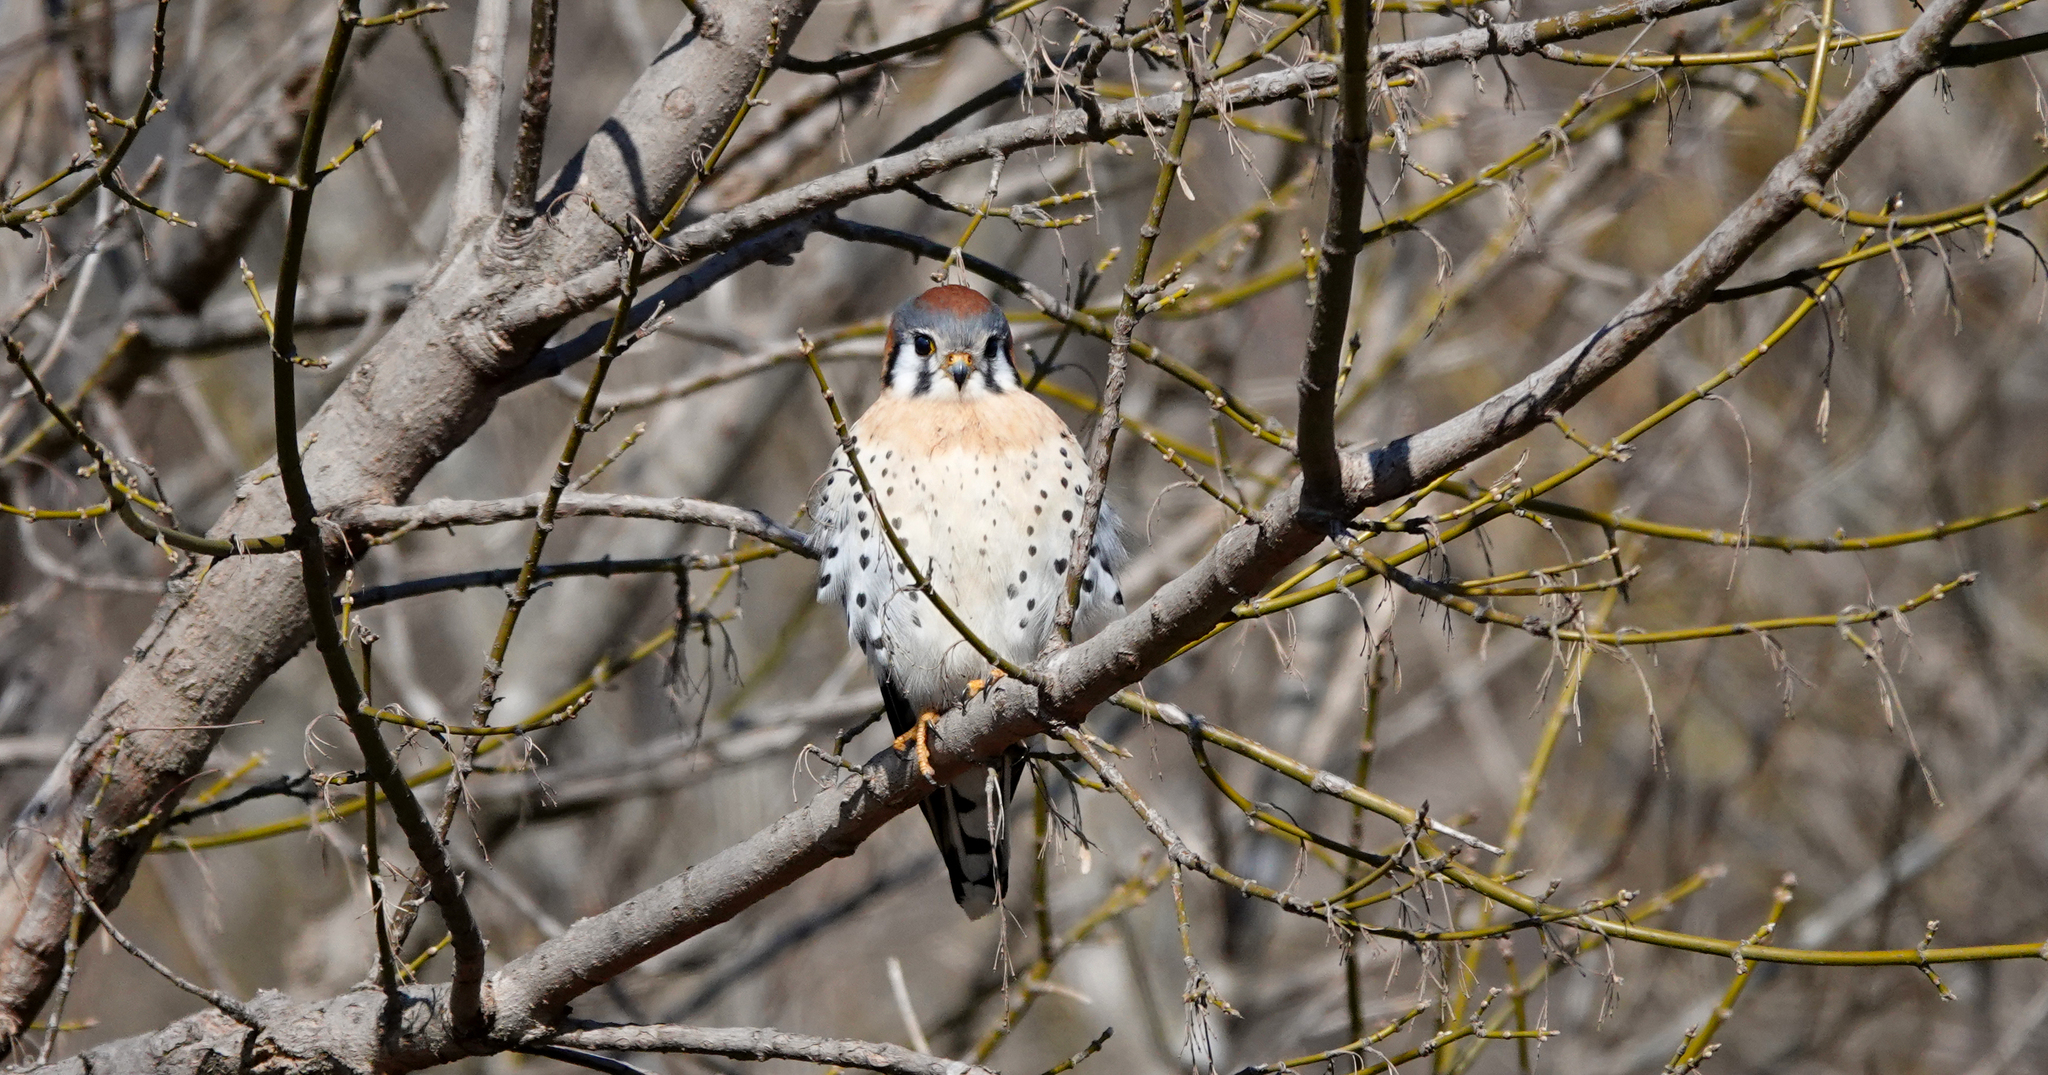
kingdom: Animalia
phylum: Chordata
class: Aves
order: Falconiformes
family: Falconidae
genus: Falco
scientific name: Falco sparverius
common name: American kestrel
